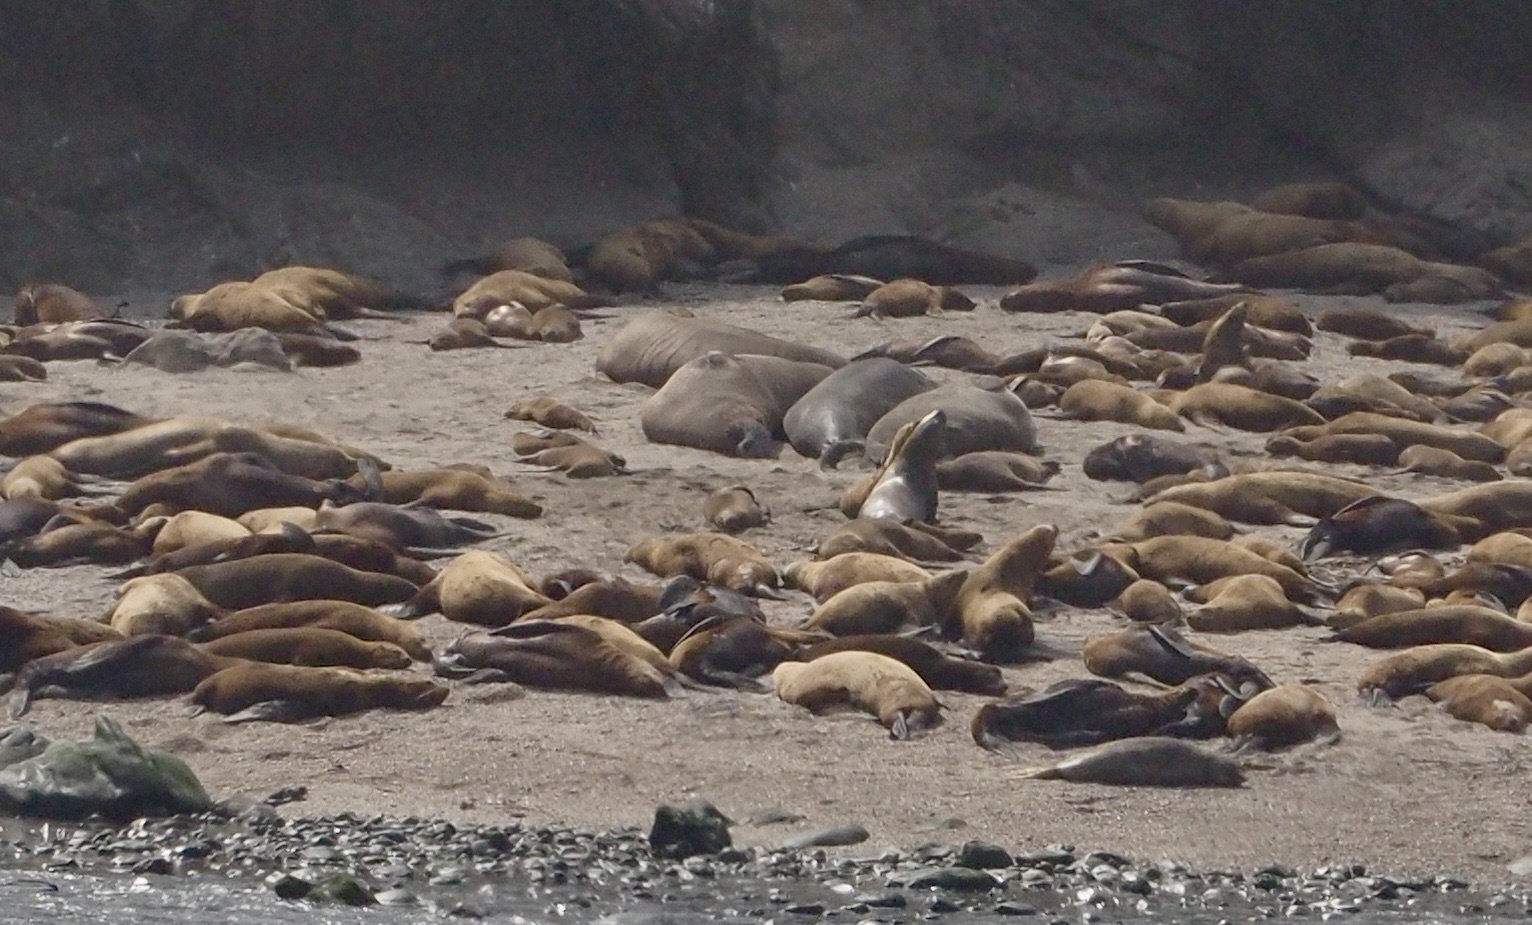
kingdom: Animalia
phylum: Chordata
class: Mammalia
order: Carnivora
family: Phocidae
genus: Mirounga
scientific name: Mirounga angustirostris
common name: Northern elephant seal
